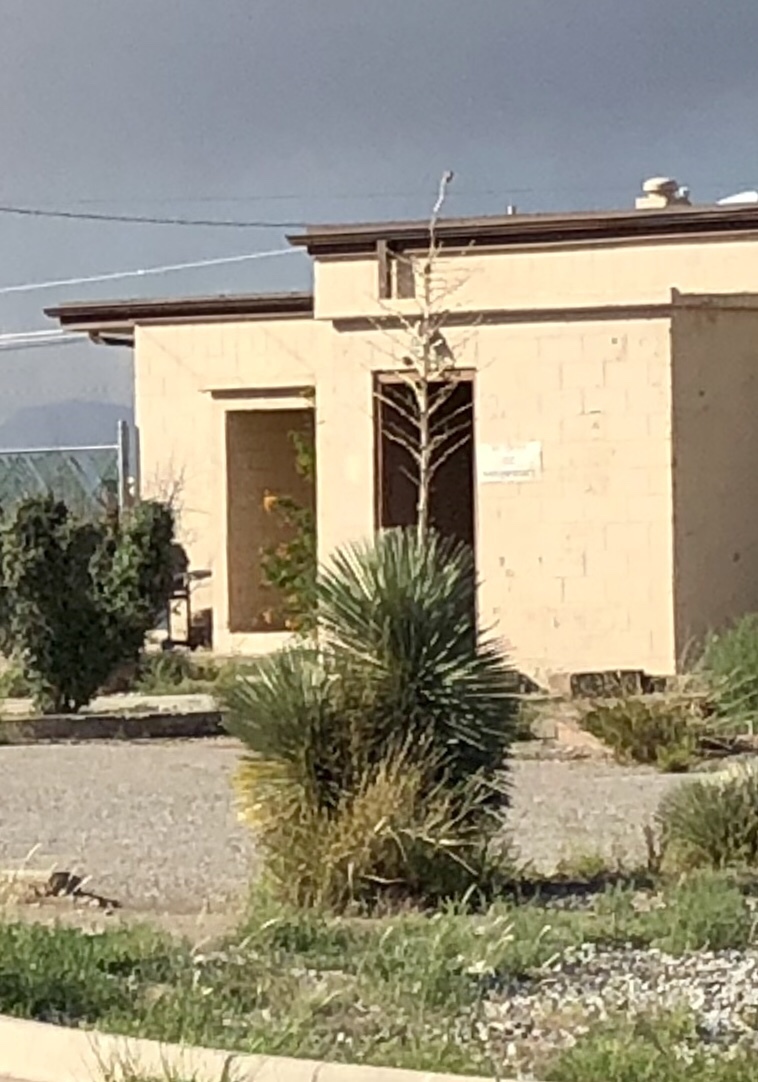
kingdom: Plantae
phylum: Tracheophyta
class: Liliopsida
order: Asparagales
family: Asparagaceae
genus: Yucca
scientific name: Yucca elata
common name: Palmella
